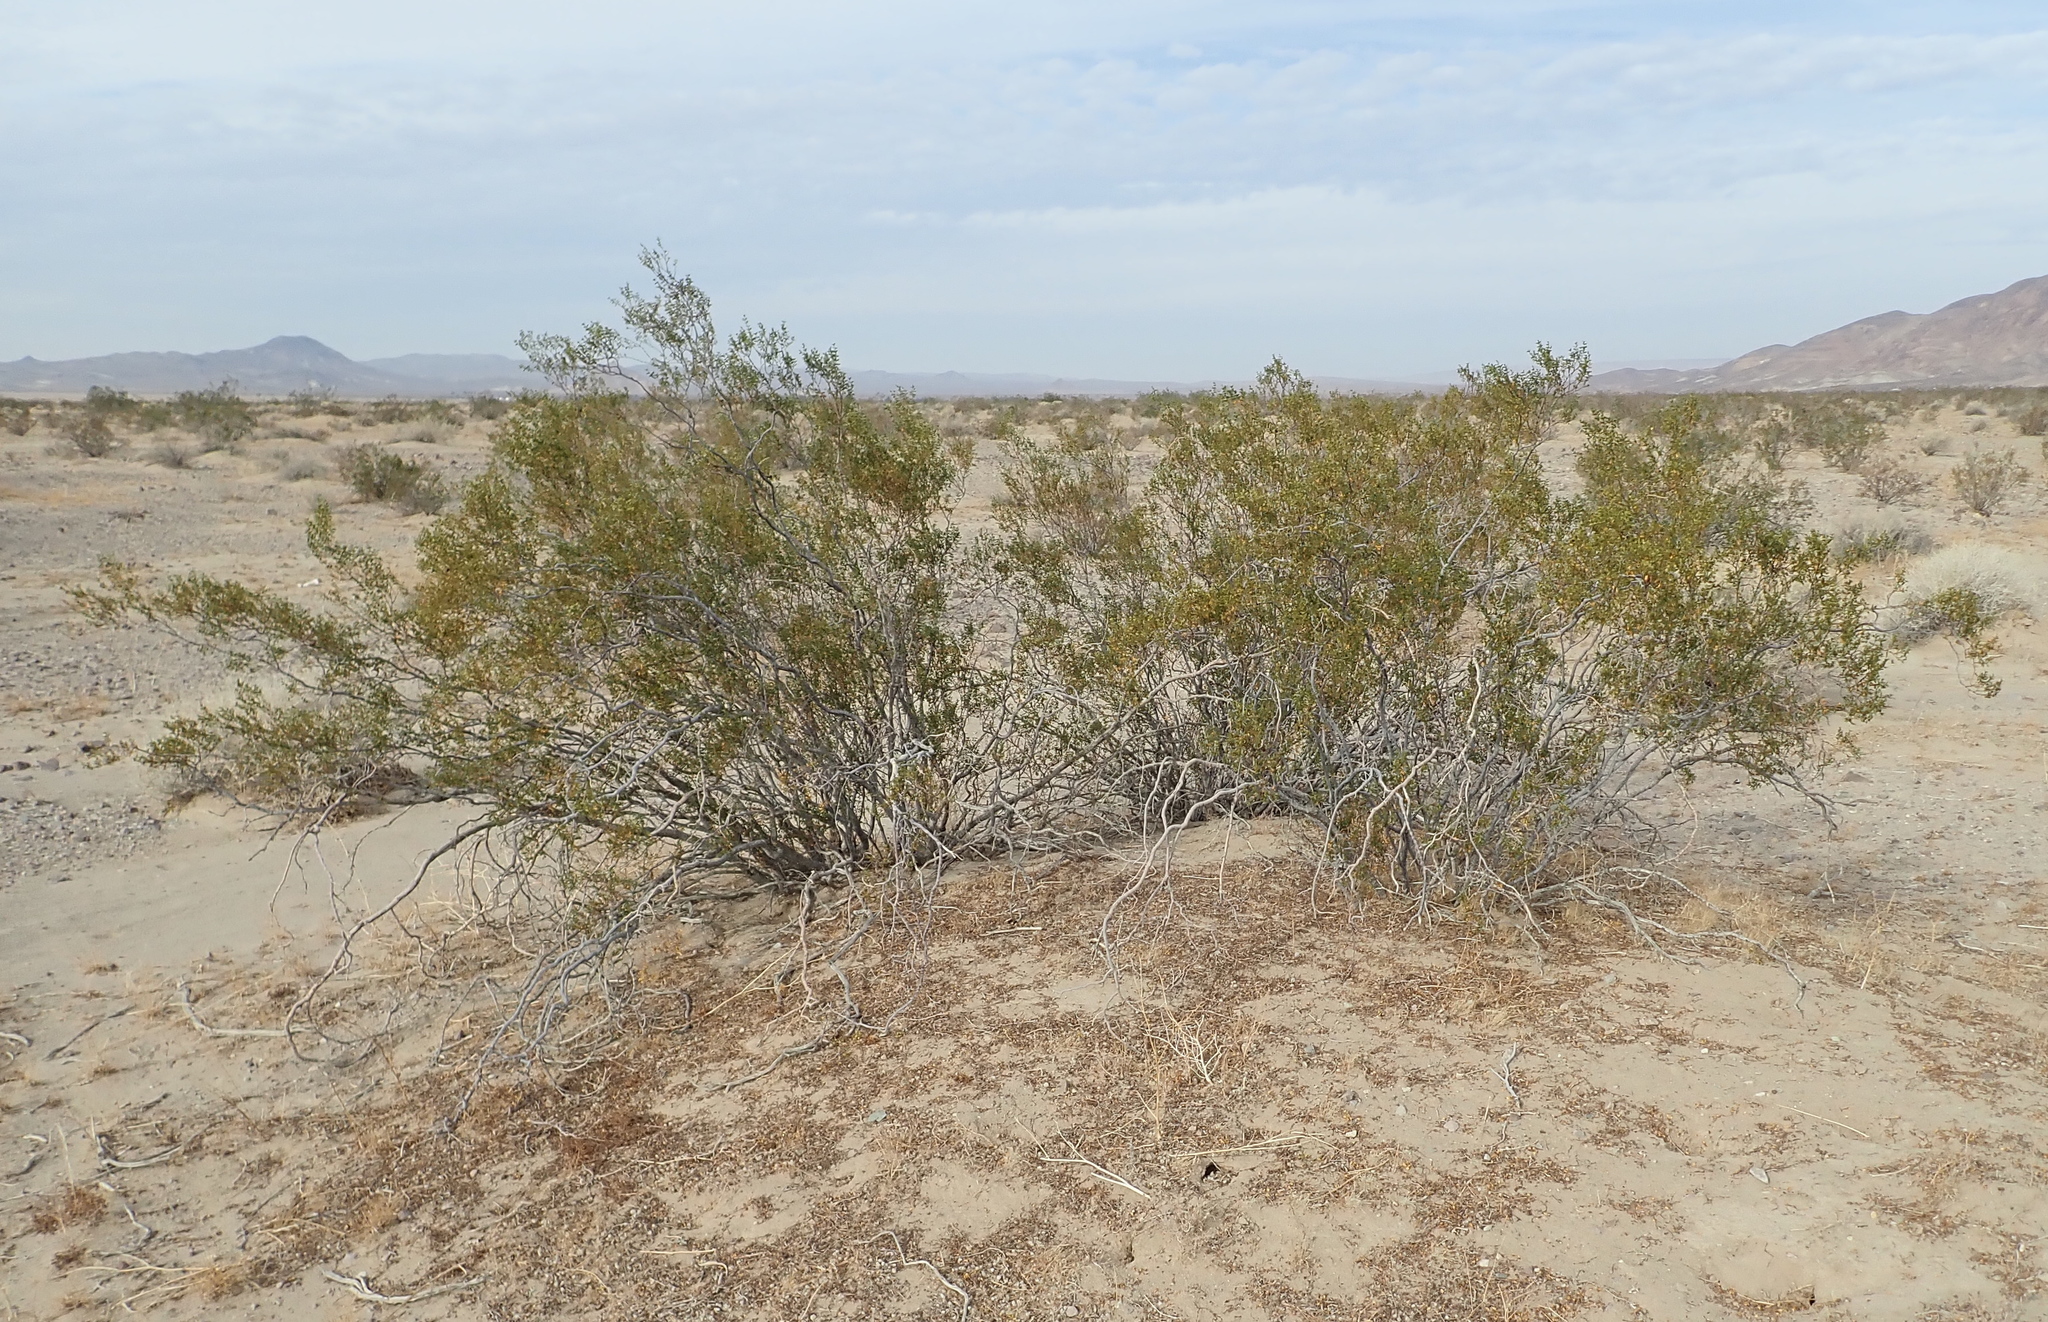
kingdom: Plantae
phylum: Tracheophyta
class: Magnoliopsida
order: Zygophyllales
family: Zygophyllaceae
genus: Larrea
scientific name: Larrea tridentata
